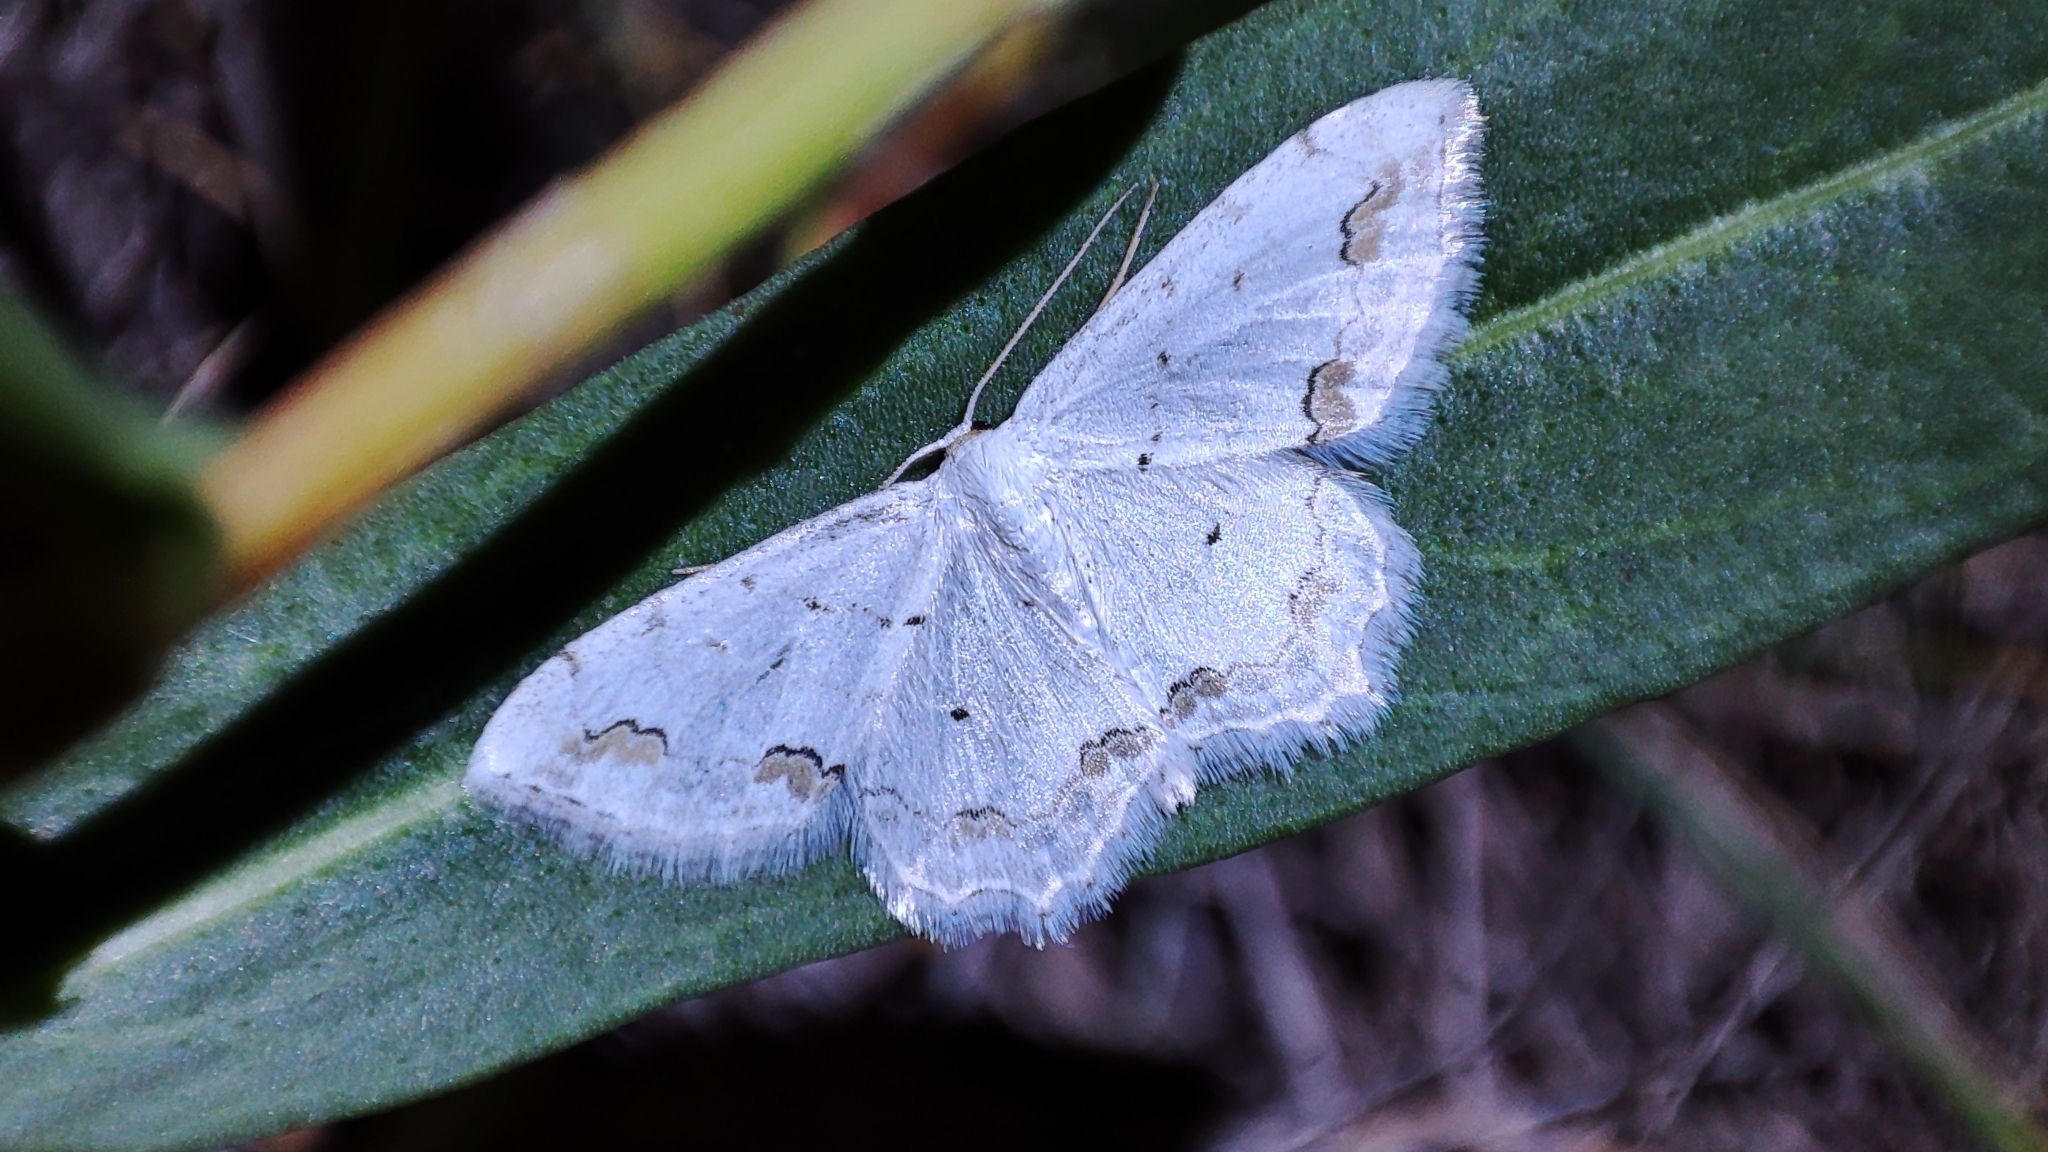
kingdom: Animalia
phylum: Arthropoda
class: Insecta
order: Lepidoptera
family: Geometridae
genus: Scopula
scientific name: Scopula ornata
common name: Lace border
